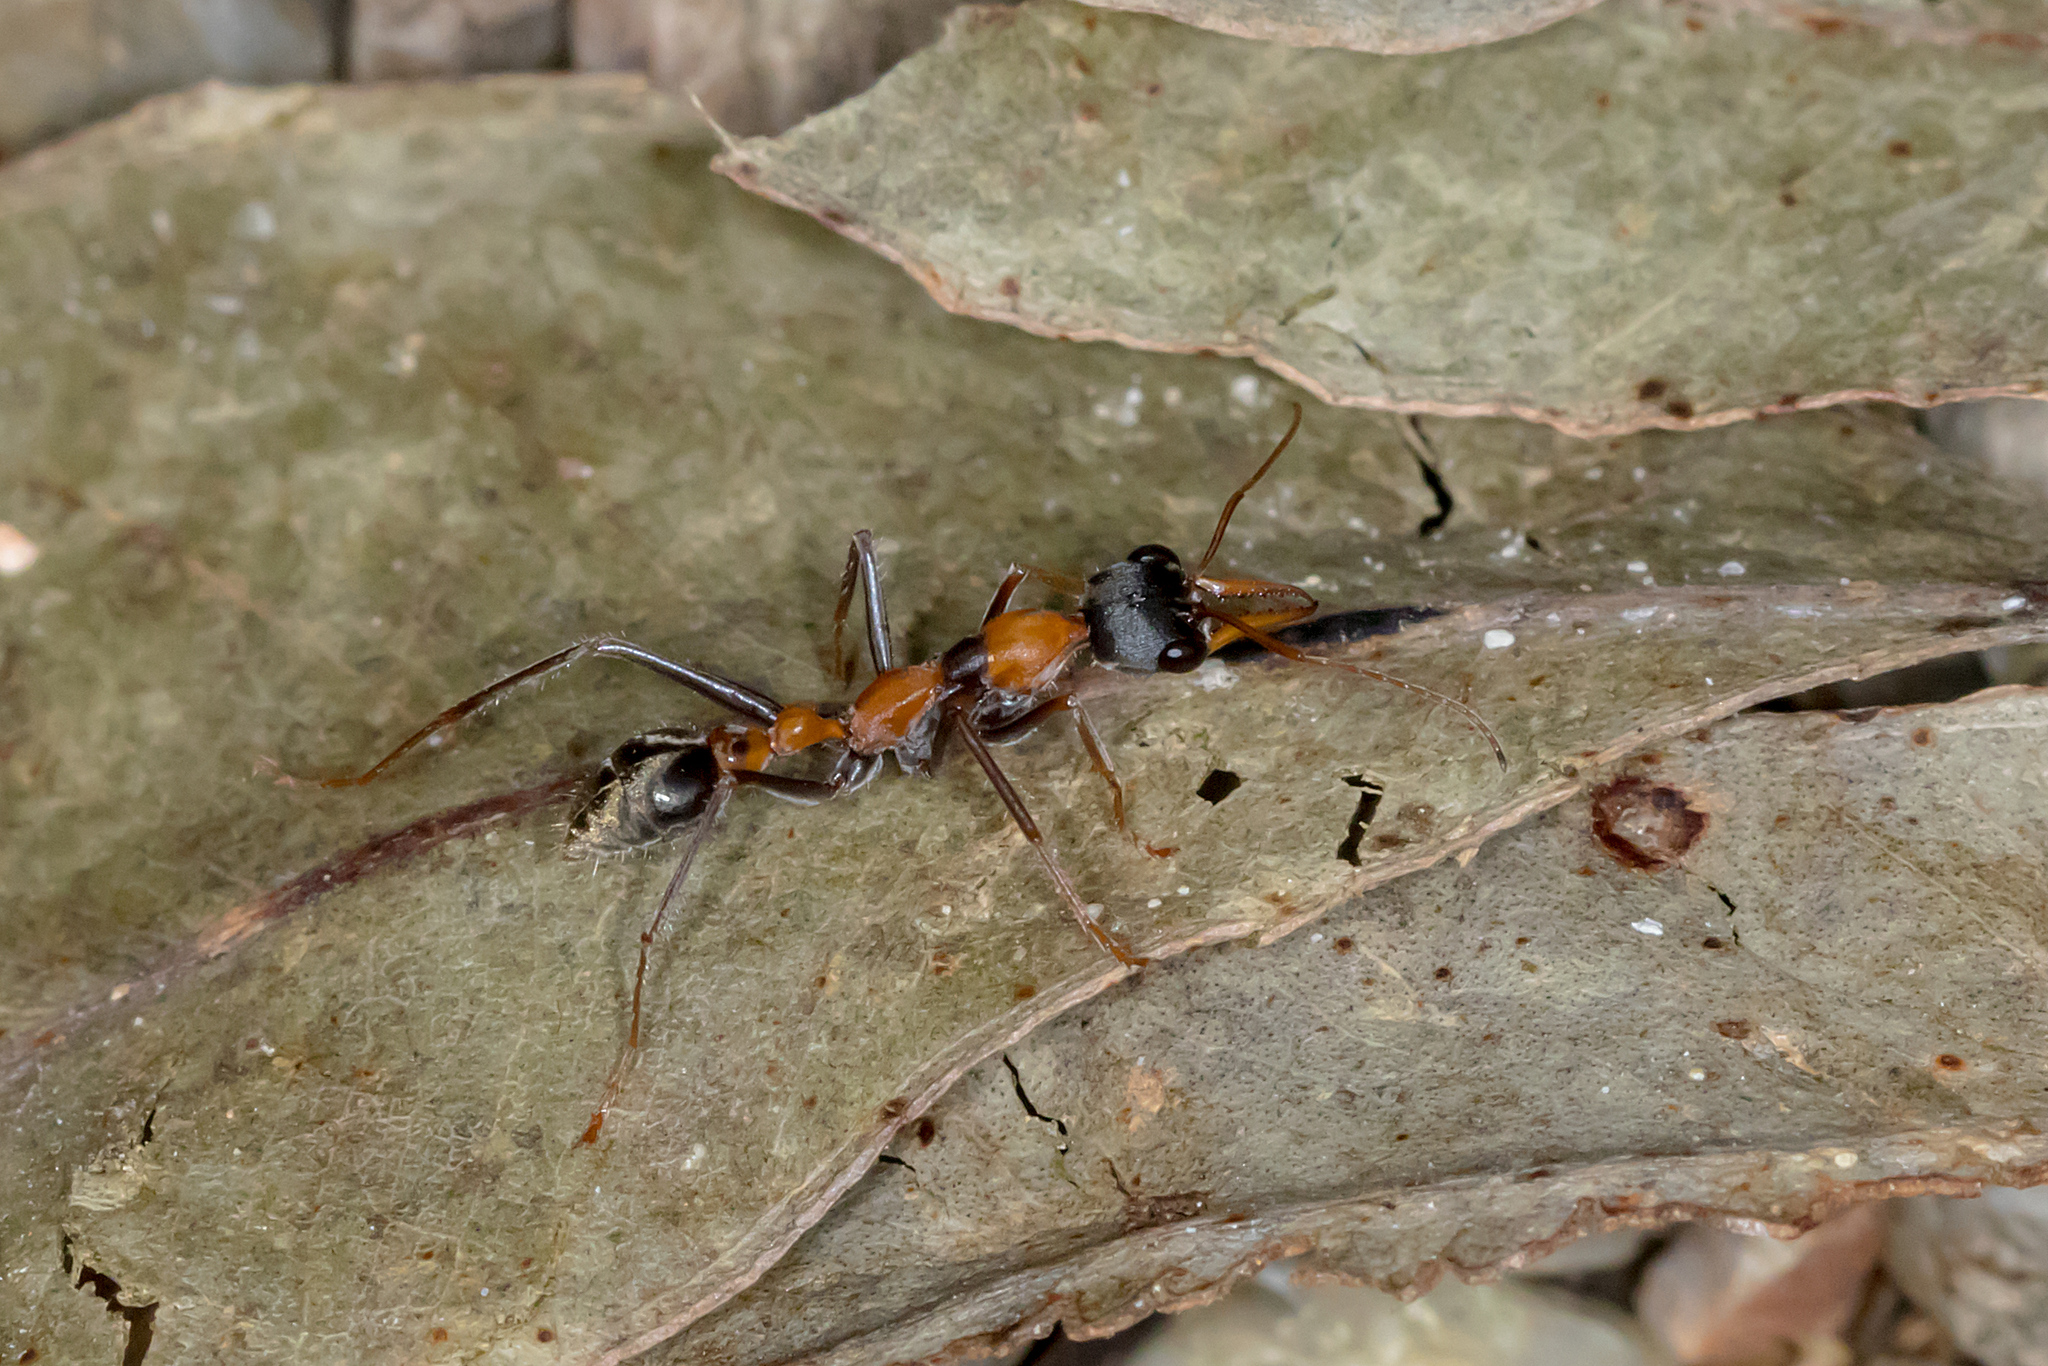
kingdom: Animalia
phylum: Arthropoda
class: Insecta
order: Hymenoptera
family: Formicidae
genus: Myrmecia
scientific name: Myrmecia nigrocincta
